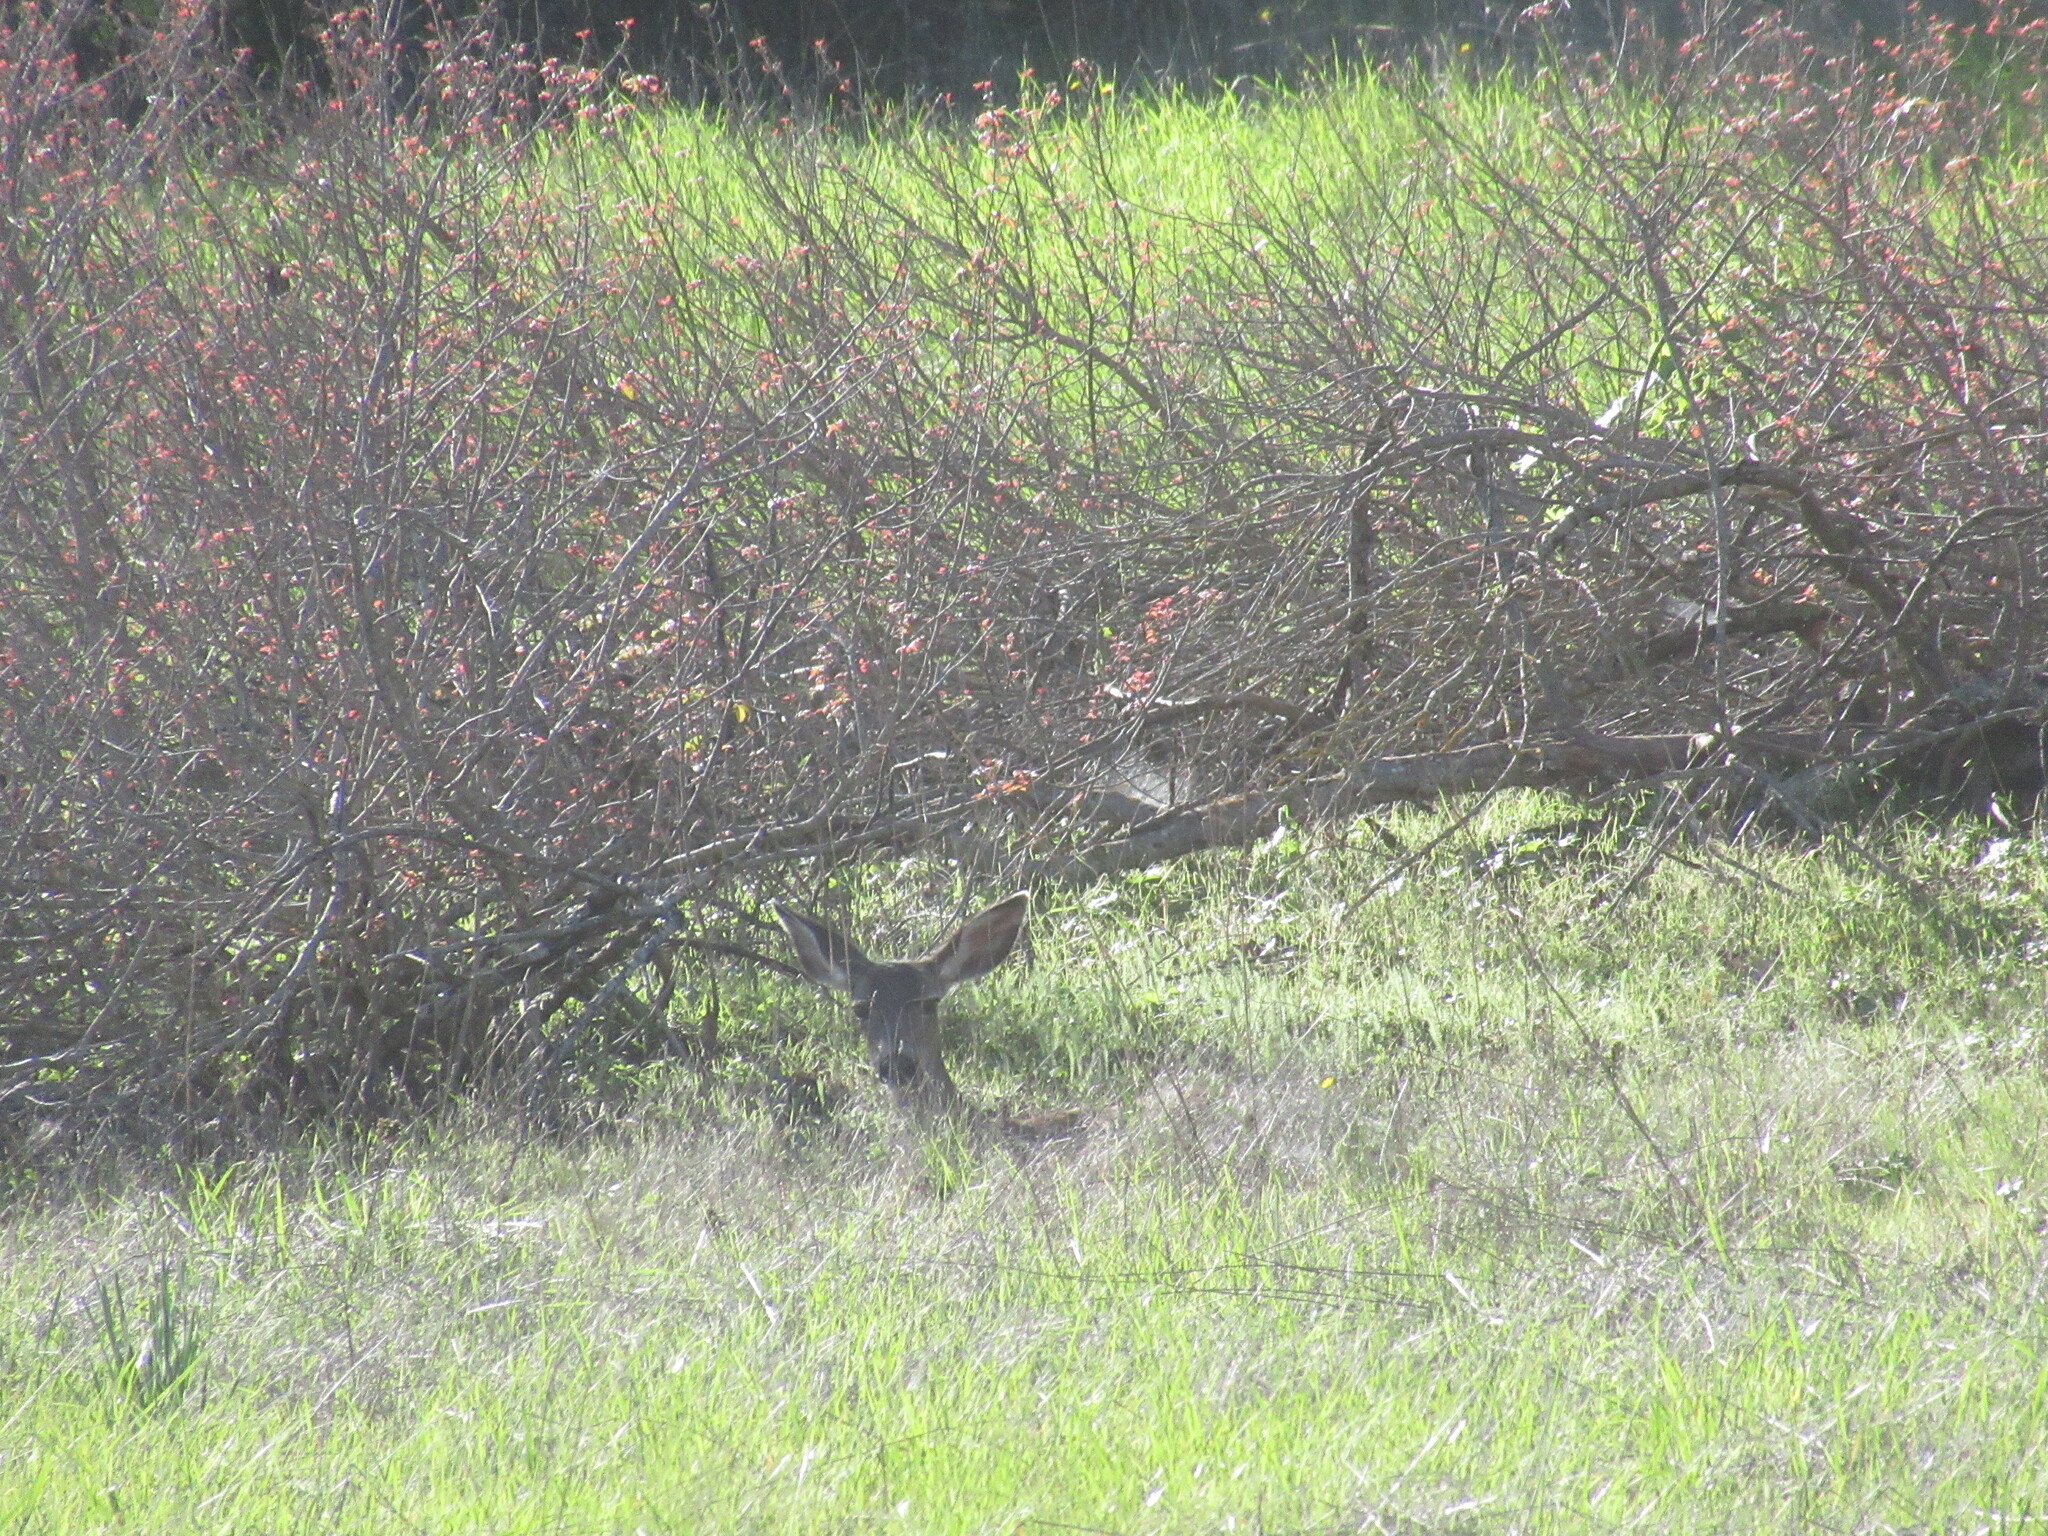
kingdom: Animalia
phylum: Chordata
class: Mammalia
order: Artiodactyla
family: Cervidae
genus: Odocoileus
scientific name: Odocoileus hemionus
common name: Mule deer
